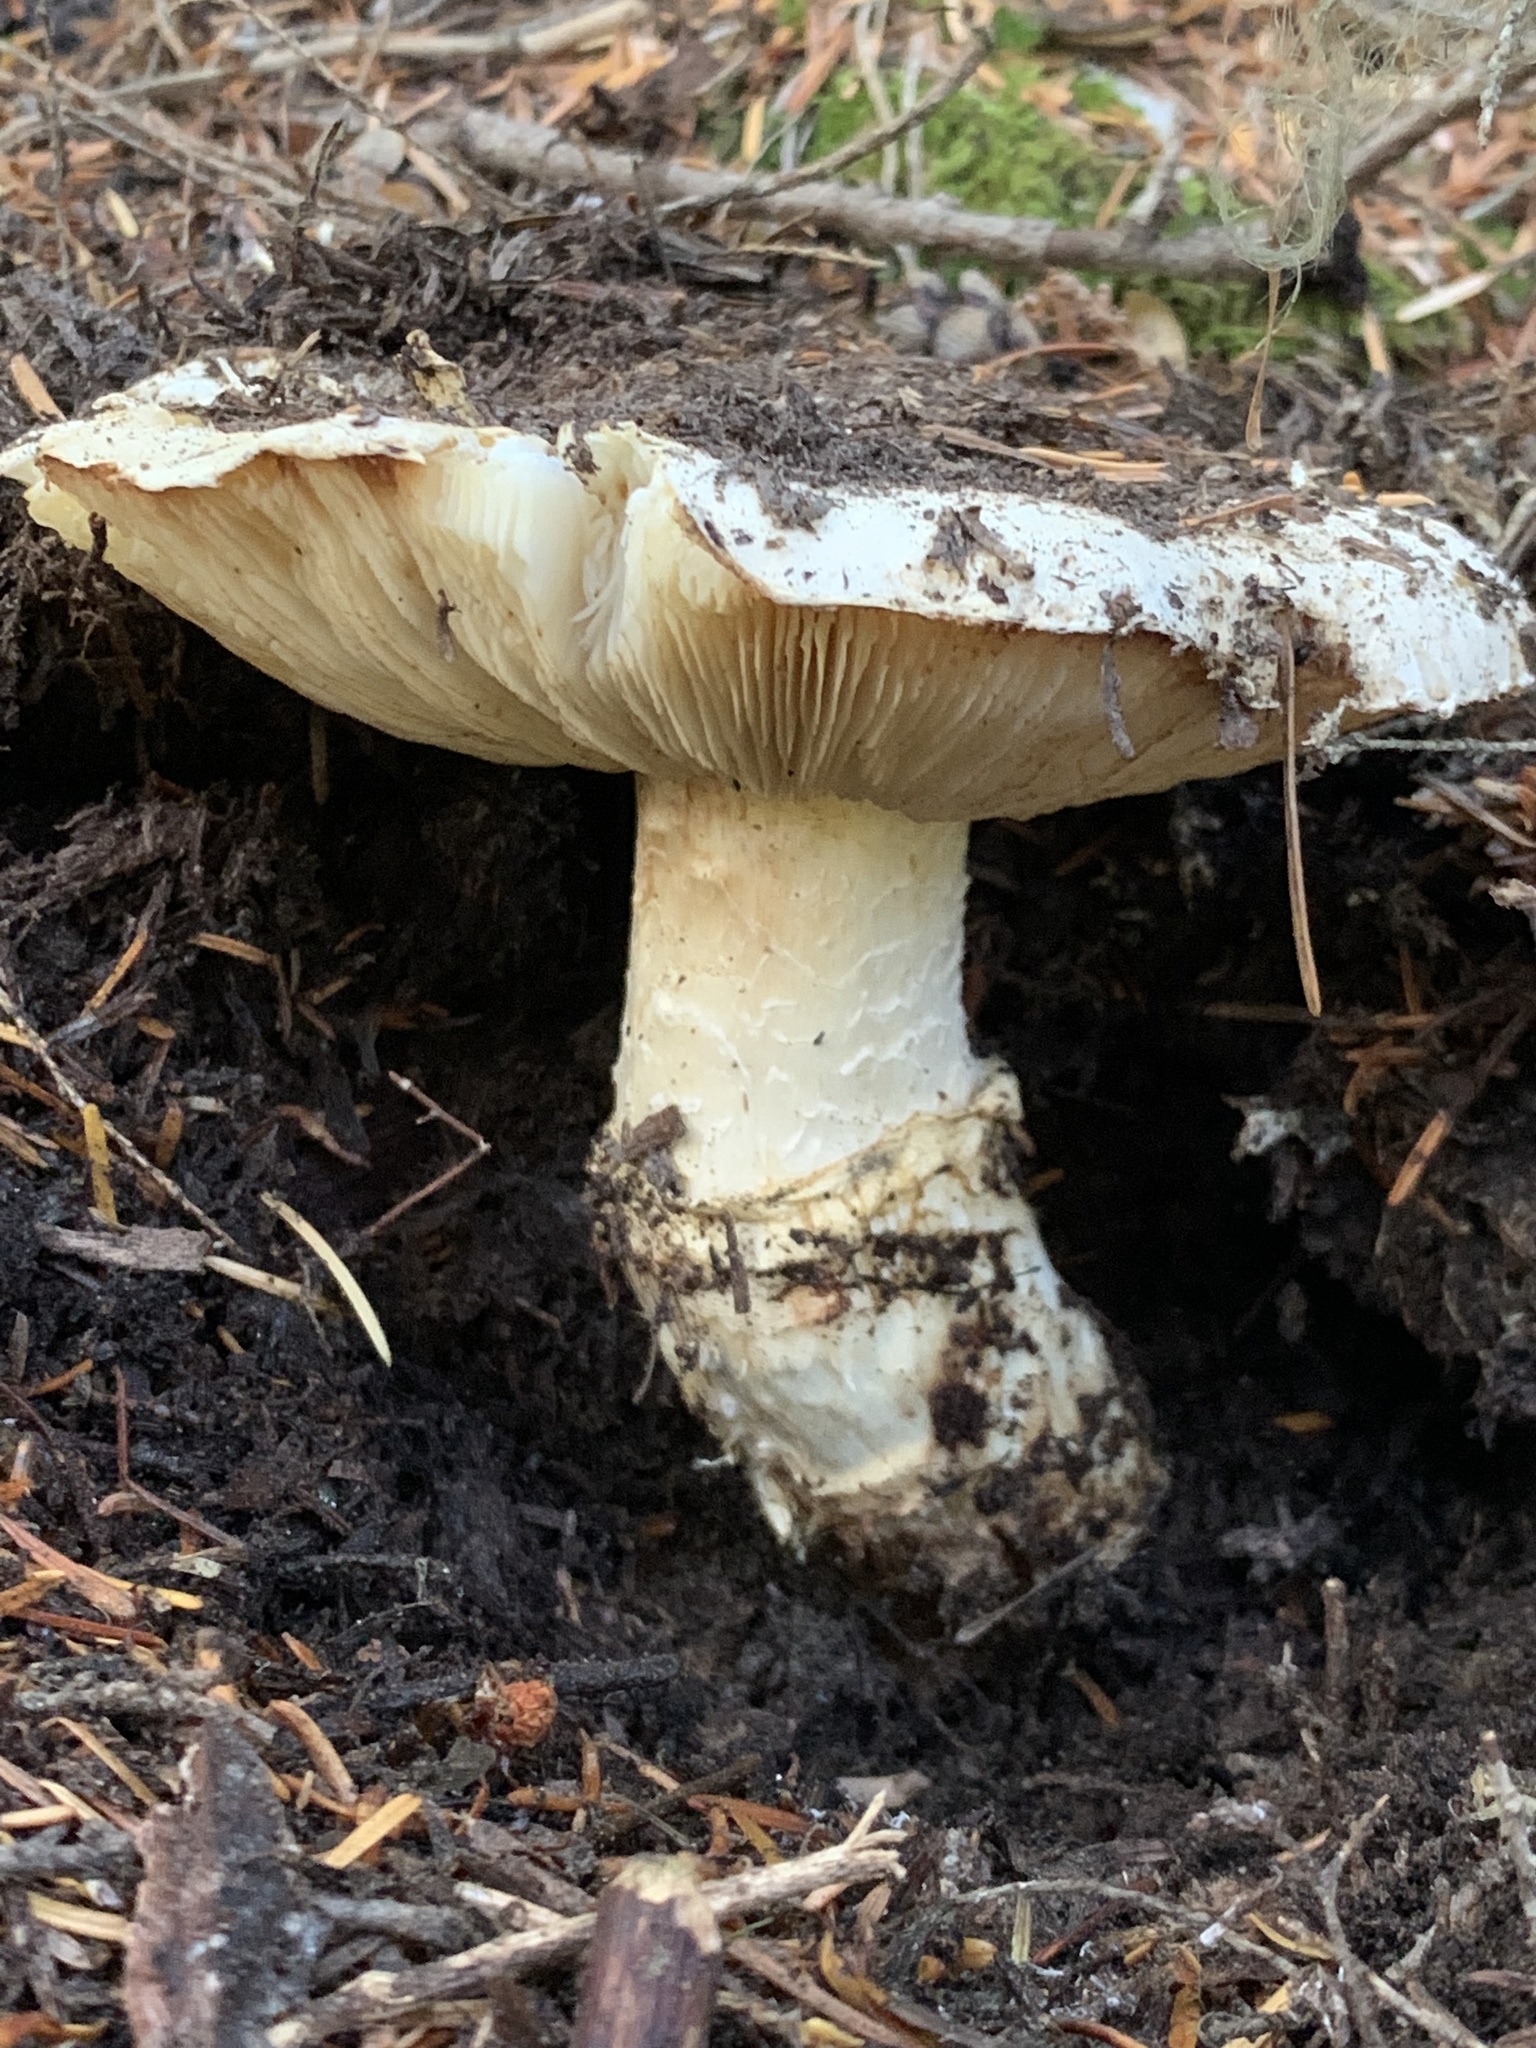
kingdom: Fungi
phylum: Basidiomycota
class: Agaricomycetes
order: Agaricales
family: Tricholomataceae
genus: Tricholoma
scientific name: Tricholoma murrillianum
